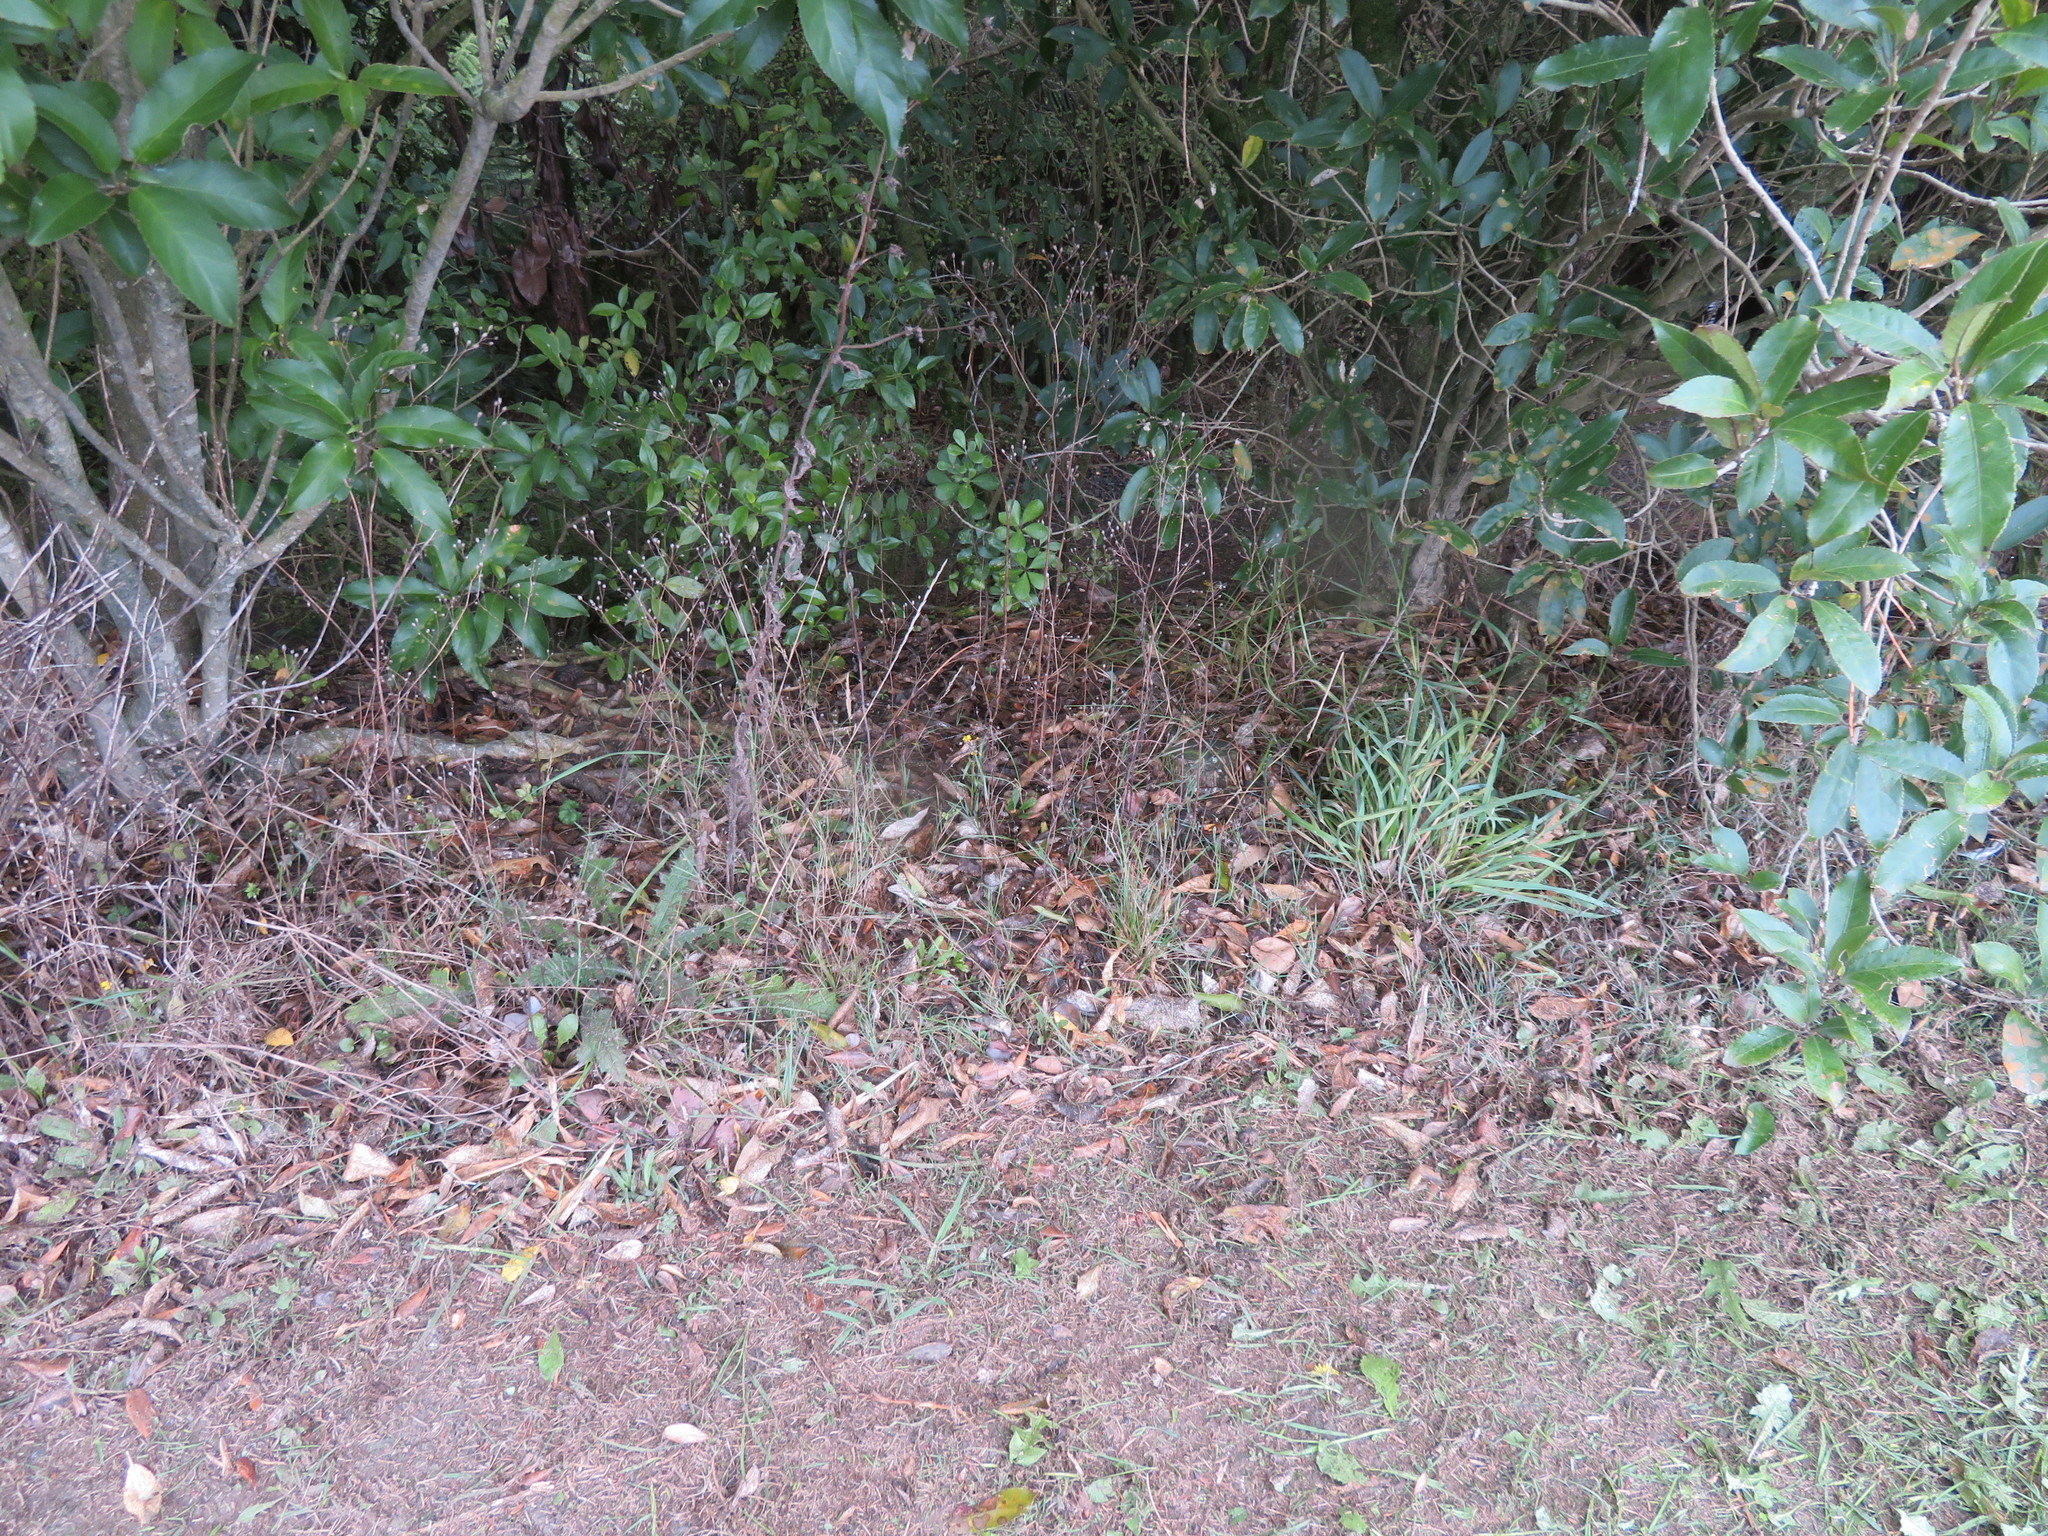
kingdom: Plantae
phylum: Tracheophyta
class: Magnoliopsida
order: Apiales
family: Pittosporaceae
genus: Pittosporum
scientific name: Pittosporum crassifolium
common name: Karo
